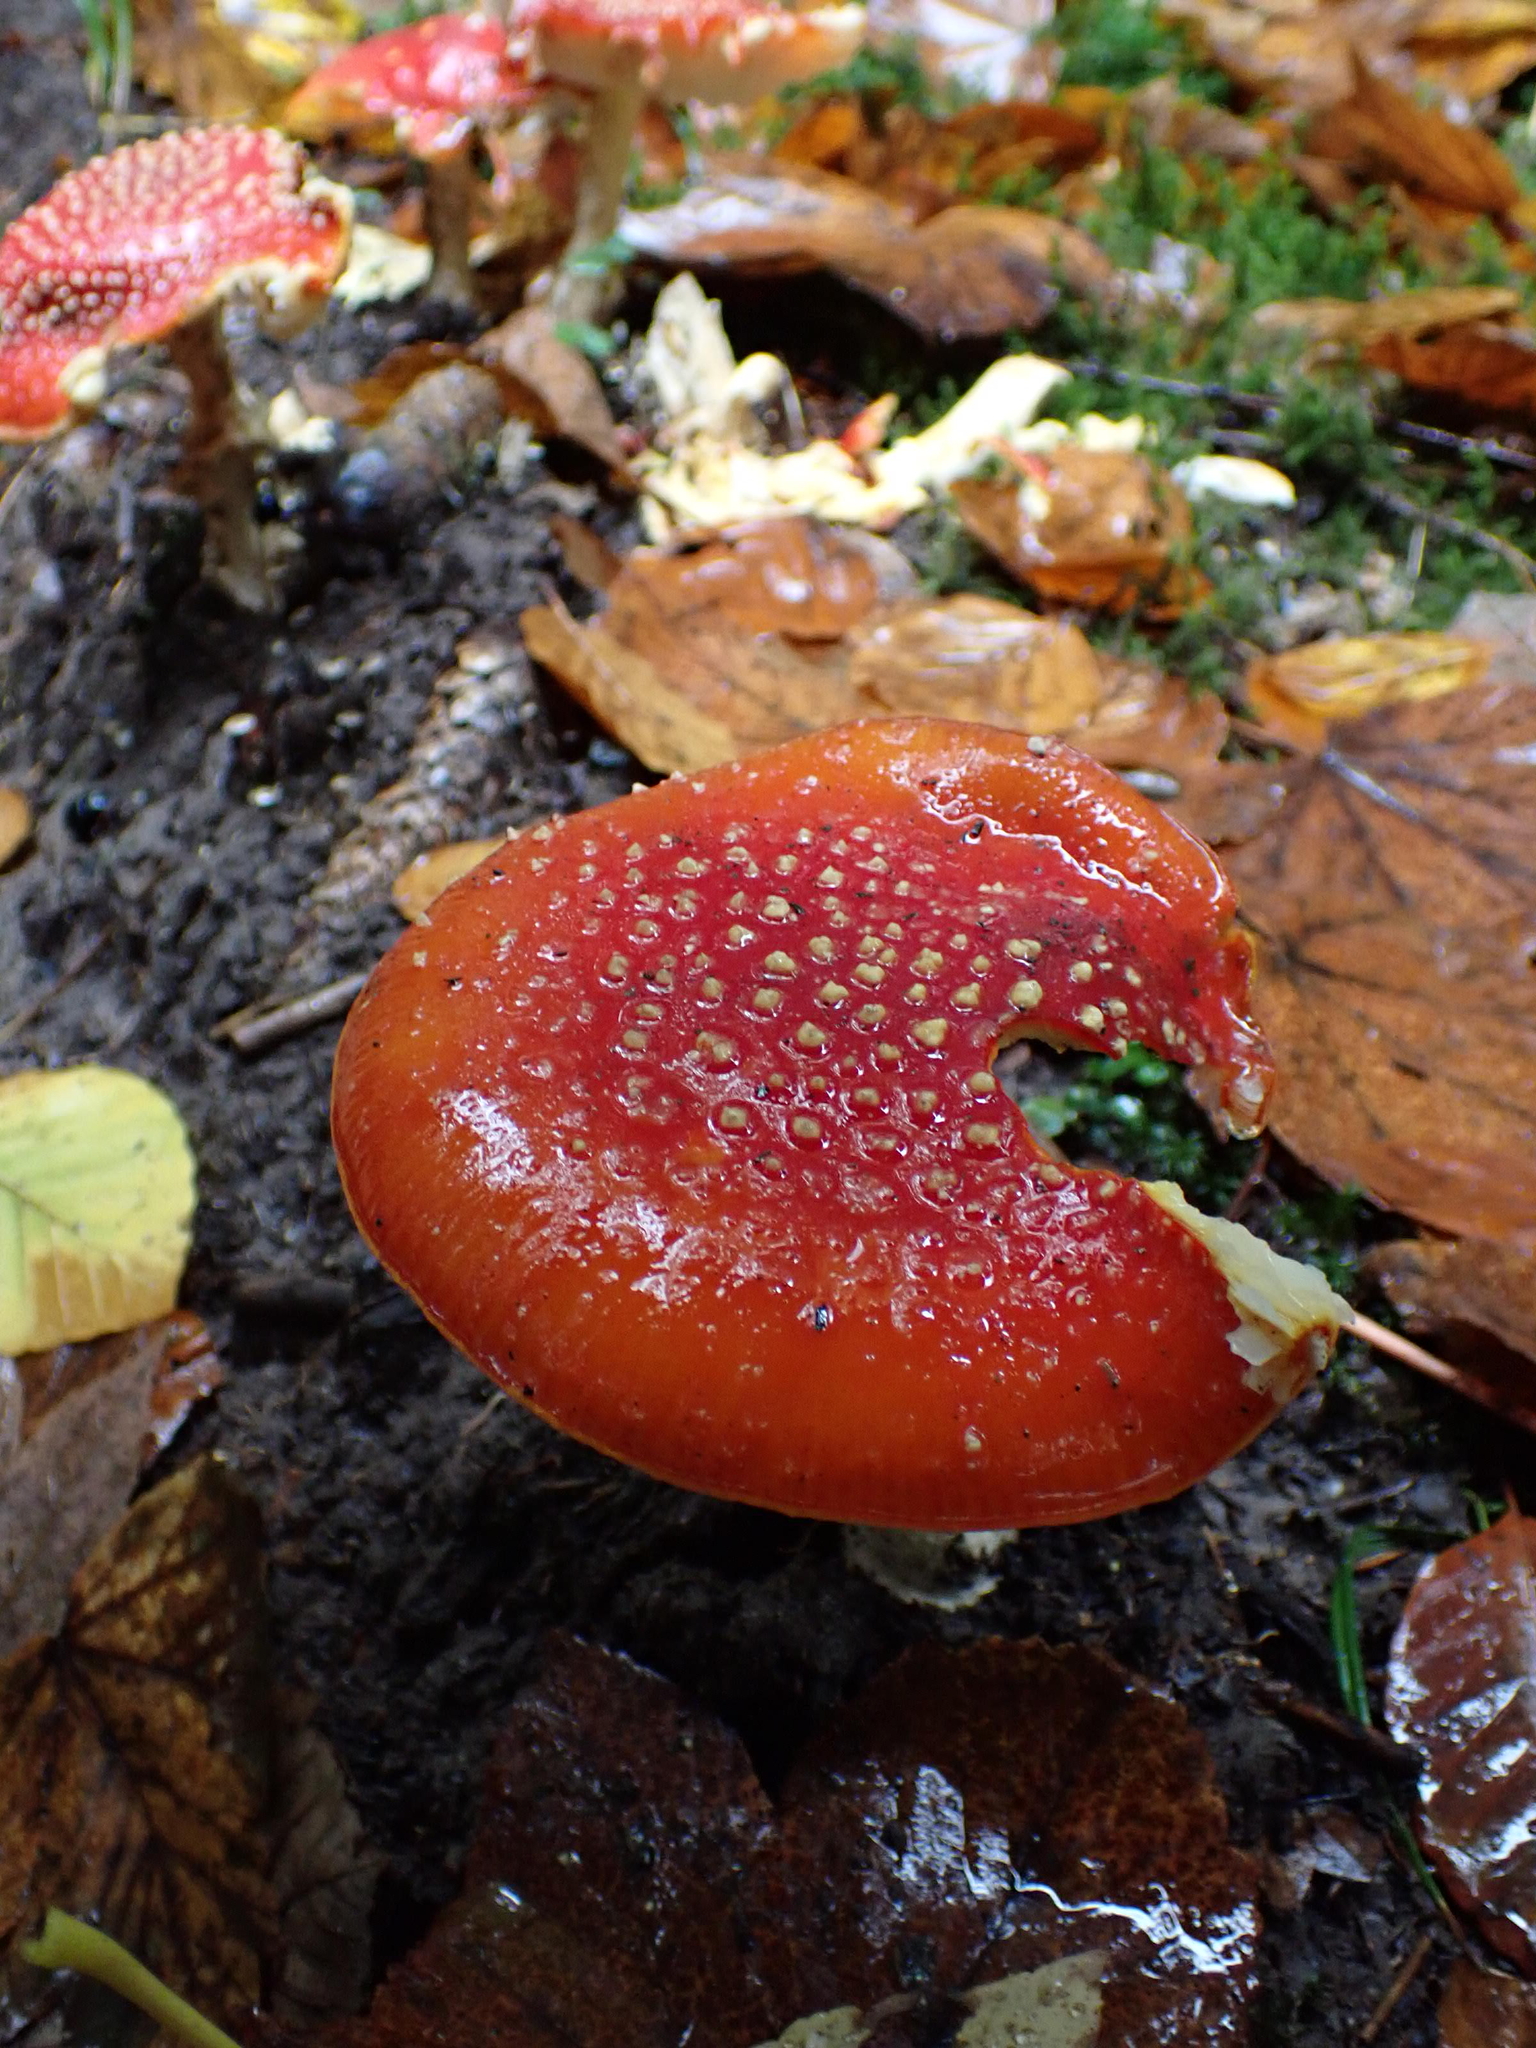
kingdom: Fungi
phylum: Basidiomycota
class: Agaricomycetes
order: Agaricales
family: Amanitaceae
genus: Amanita
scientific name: Amanita muscaria
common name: Fly agaric
